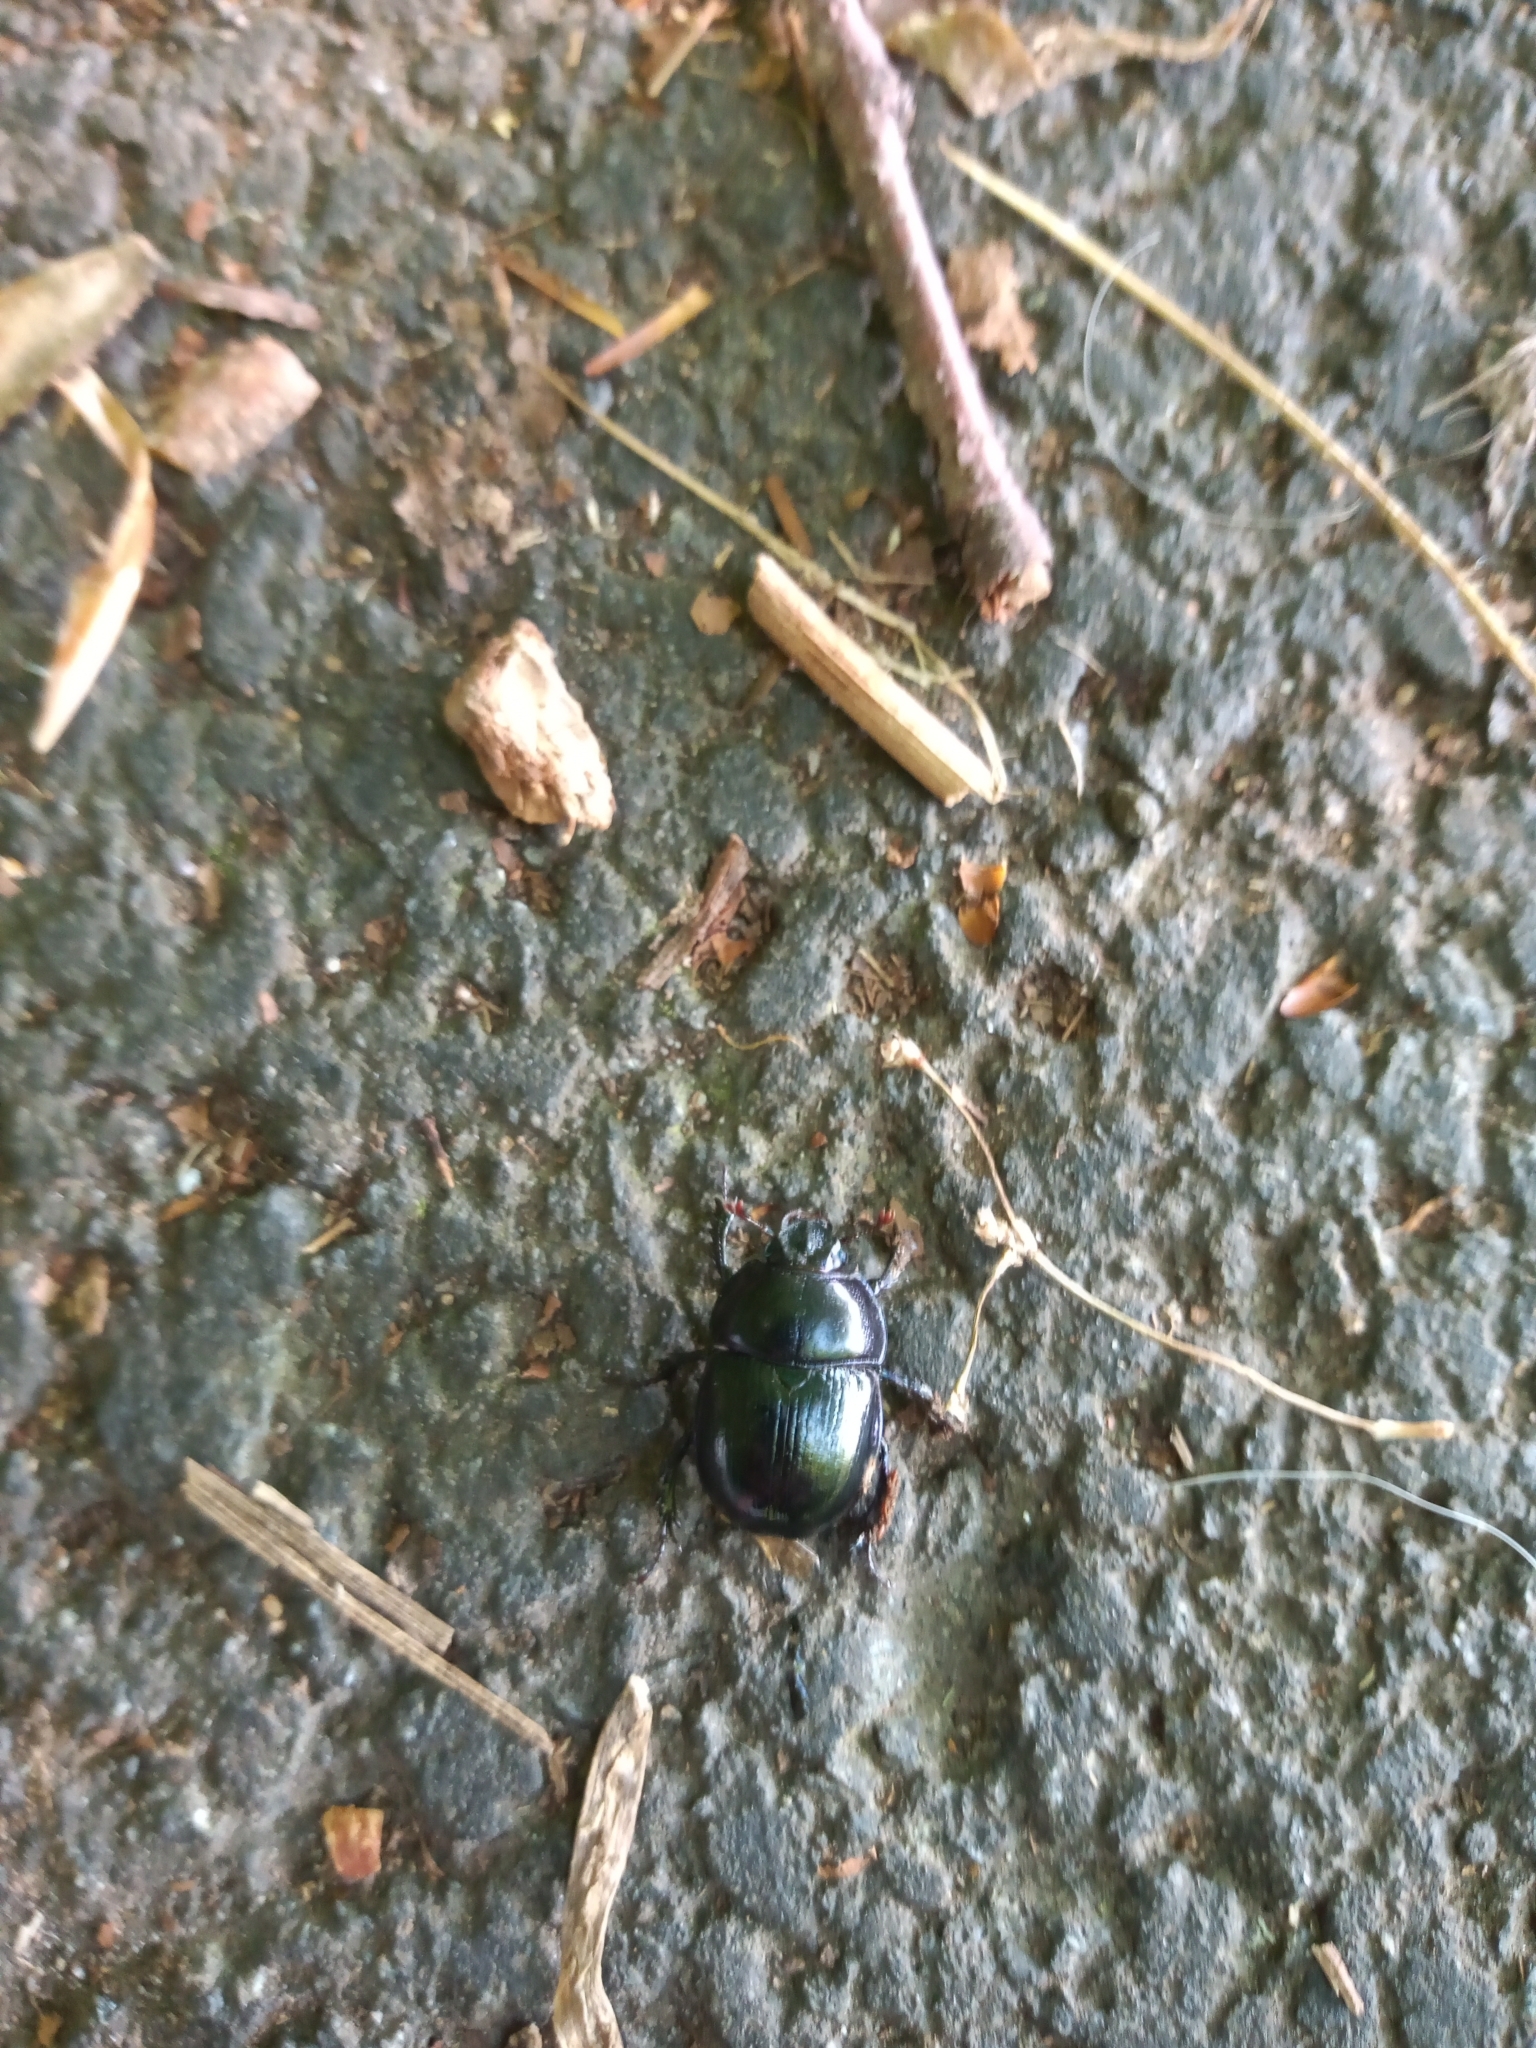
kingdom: Animalia
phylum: Arthropoda
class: Insecta
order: Coleoptera
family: Geotrupidae
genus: Anoplotrupes
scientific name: Anoplotrupes stercorosus
